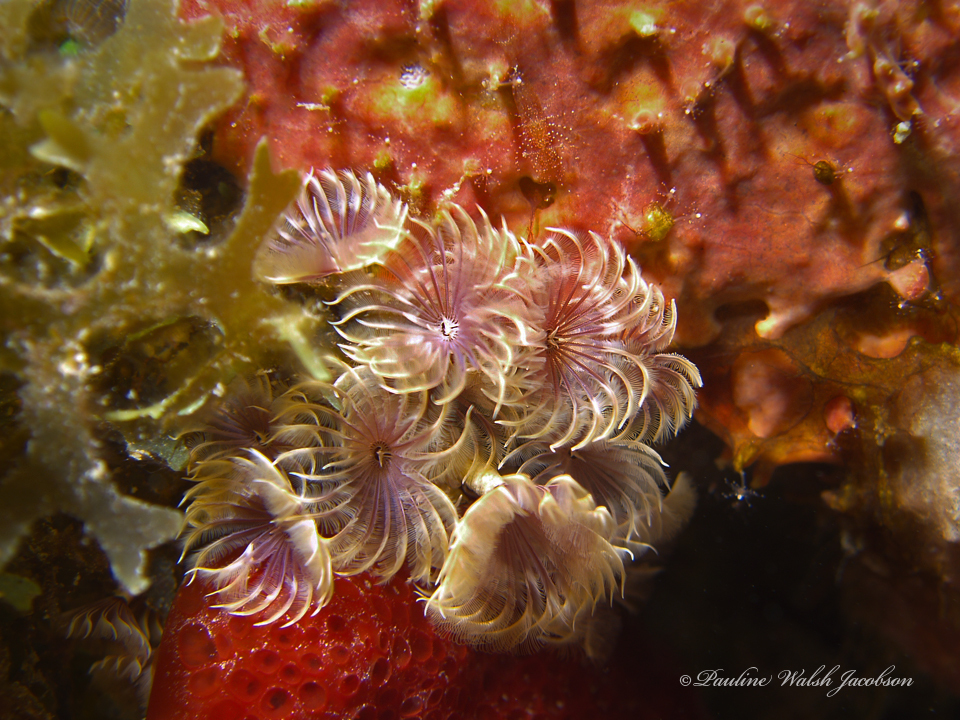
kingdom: Animalia
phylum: Annelida
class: Polychaeta
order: Sabellida
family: Sabellidae
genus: Bispira
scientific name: Bispira brunnea
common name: Social feather duster
